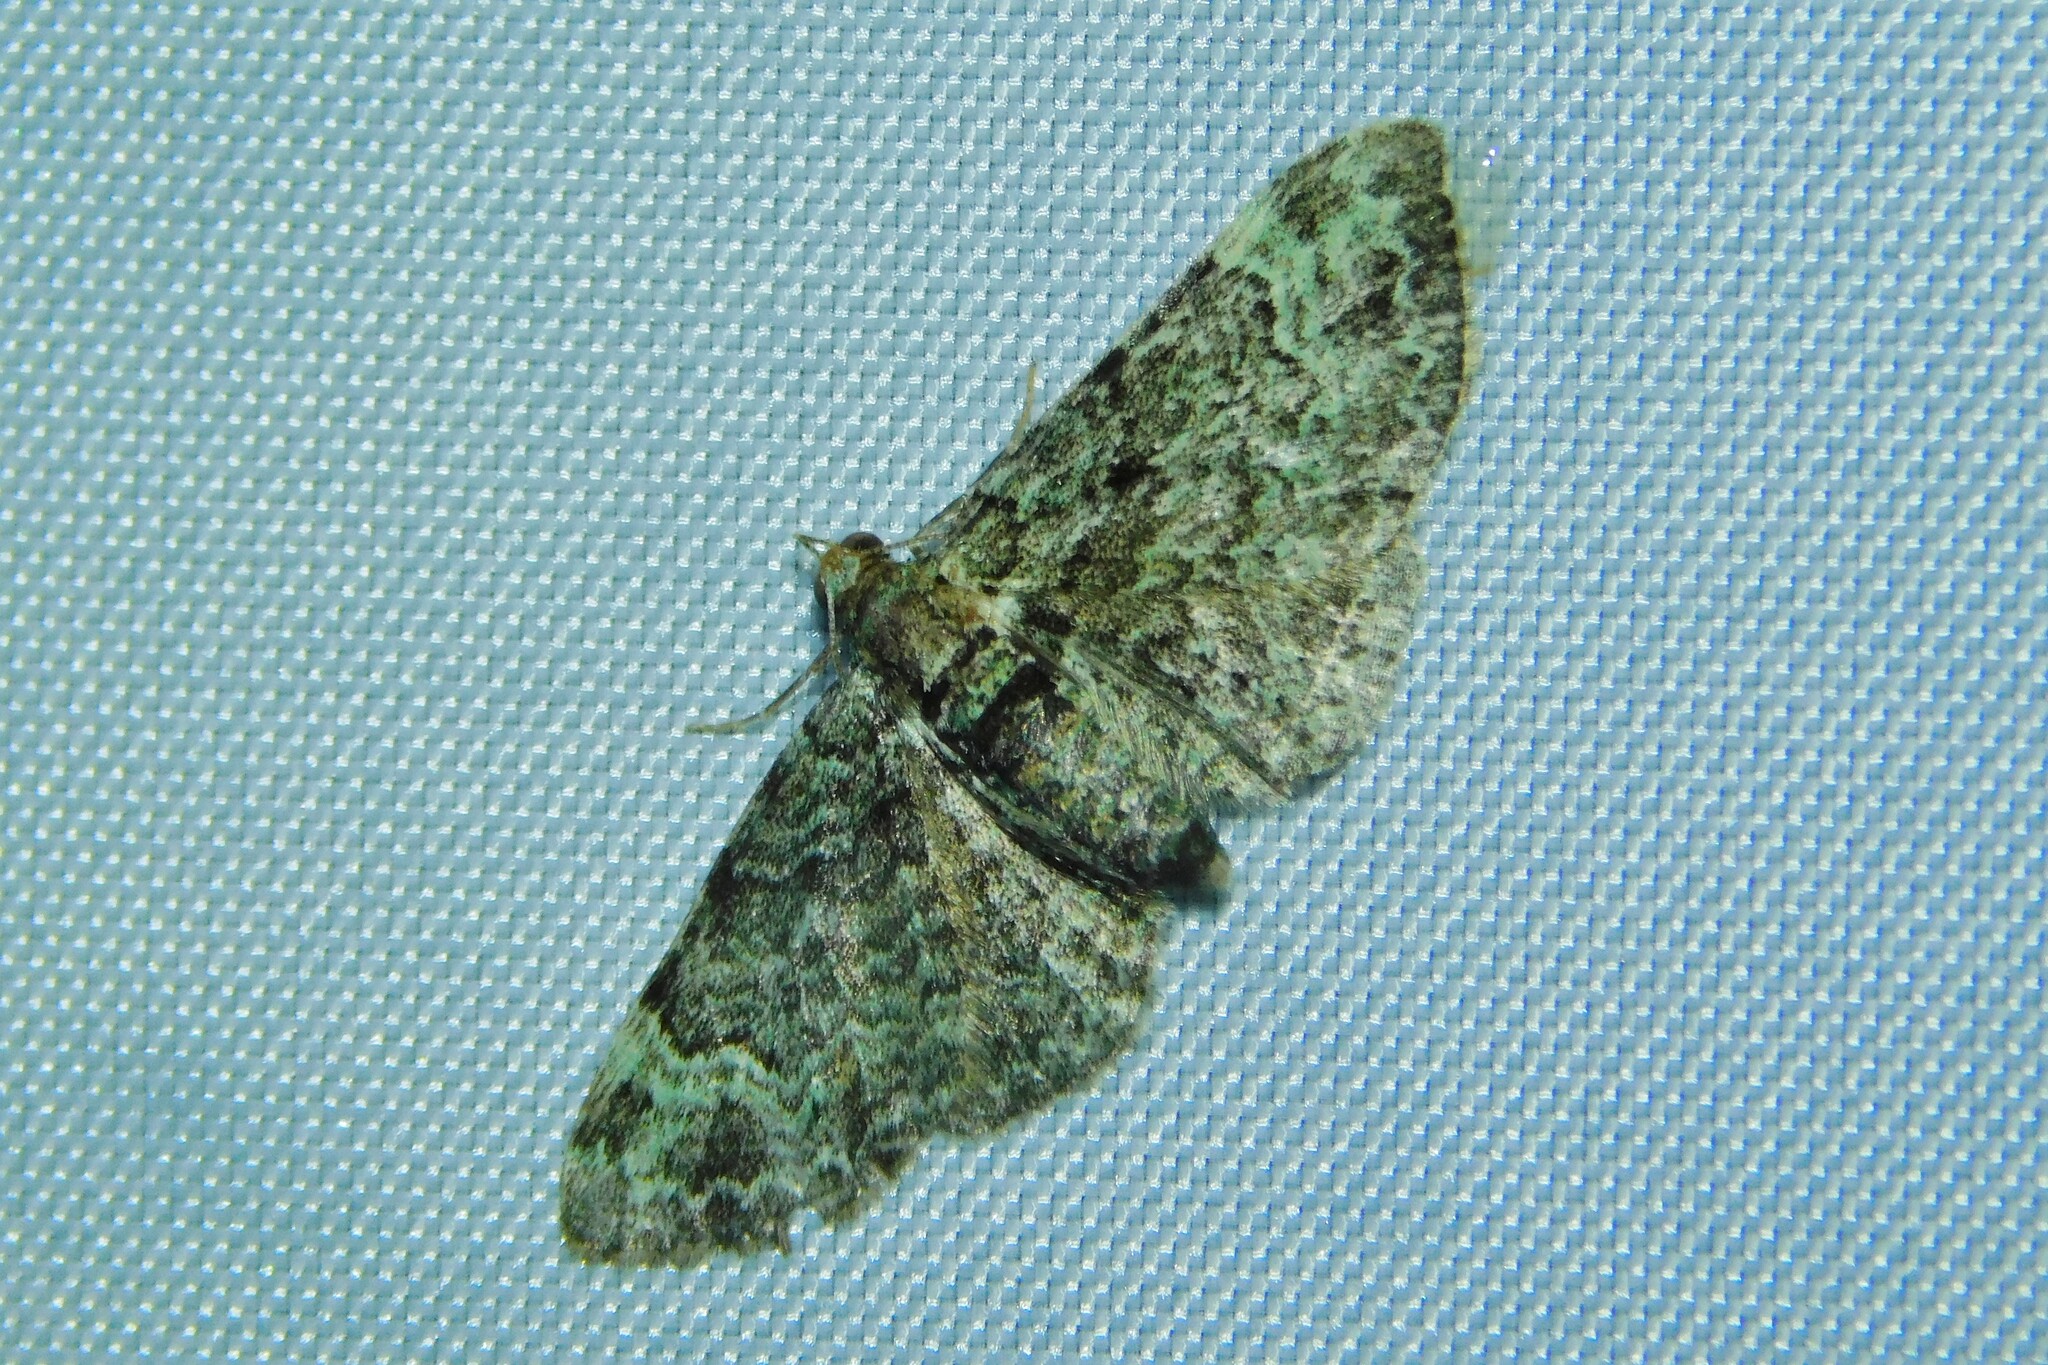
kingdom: Animalia
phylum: Arthropoda
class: Insecta
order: Lepidoptera
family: Geometridae
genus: Pasiphila
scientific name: Pasiphila rectangulata
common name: Green pug
